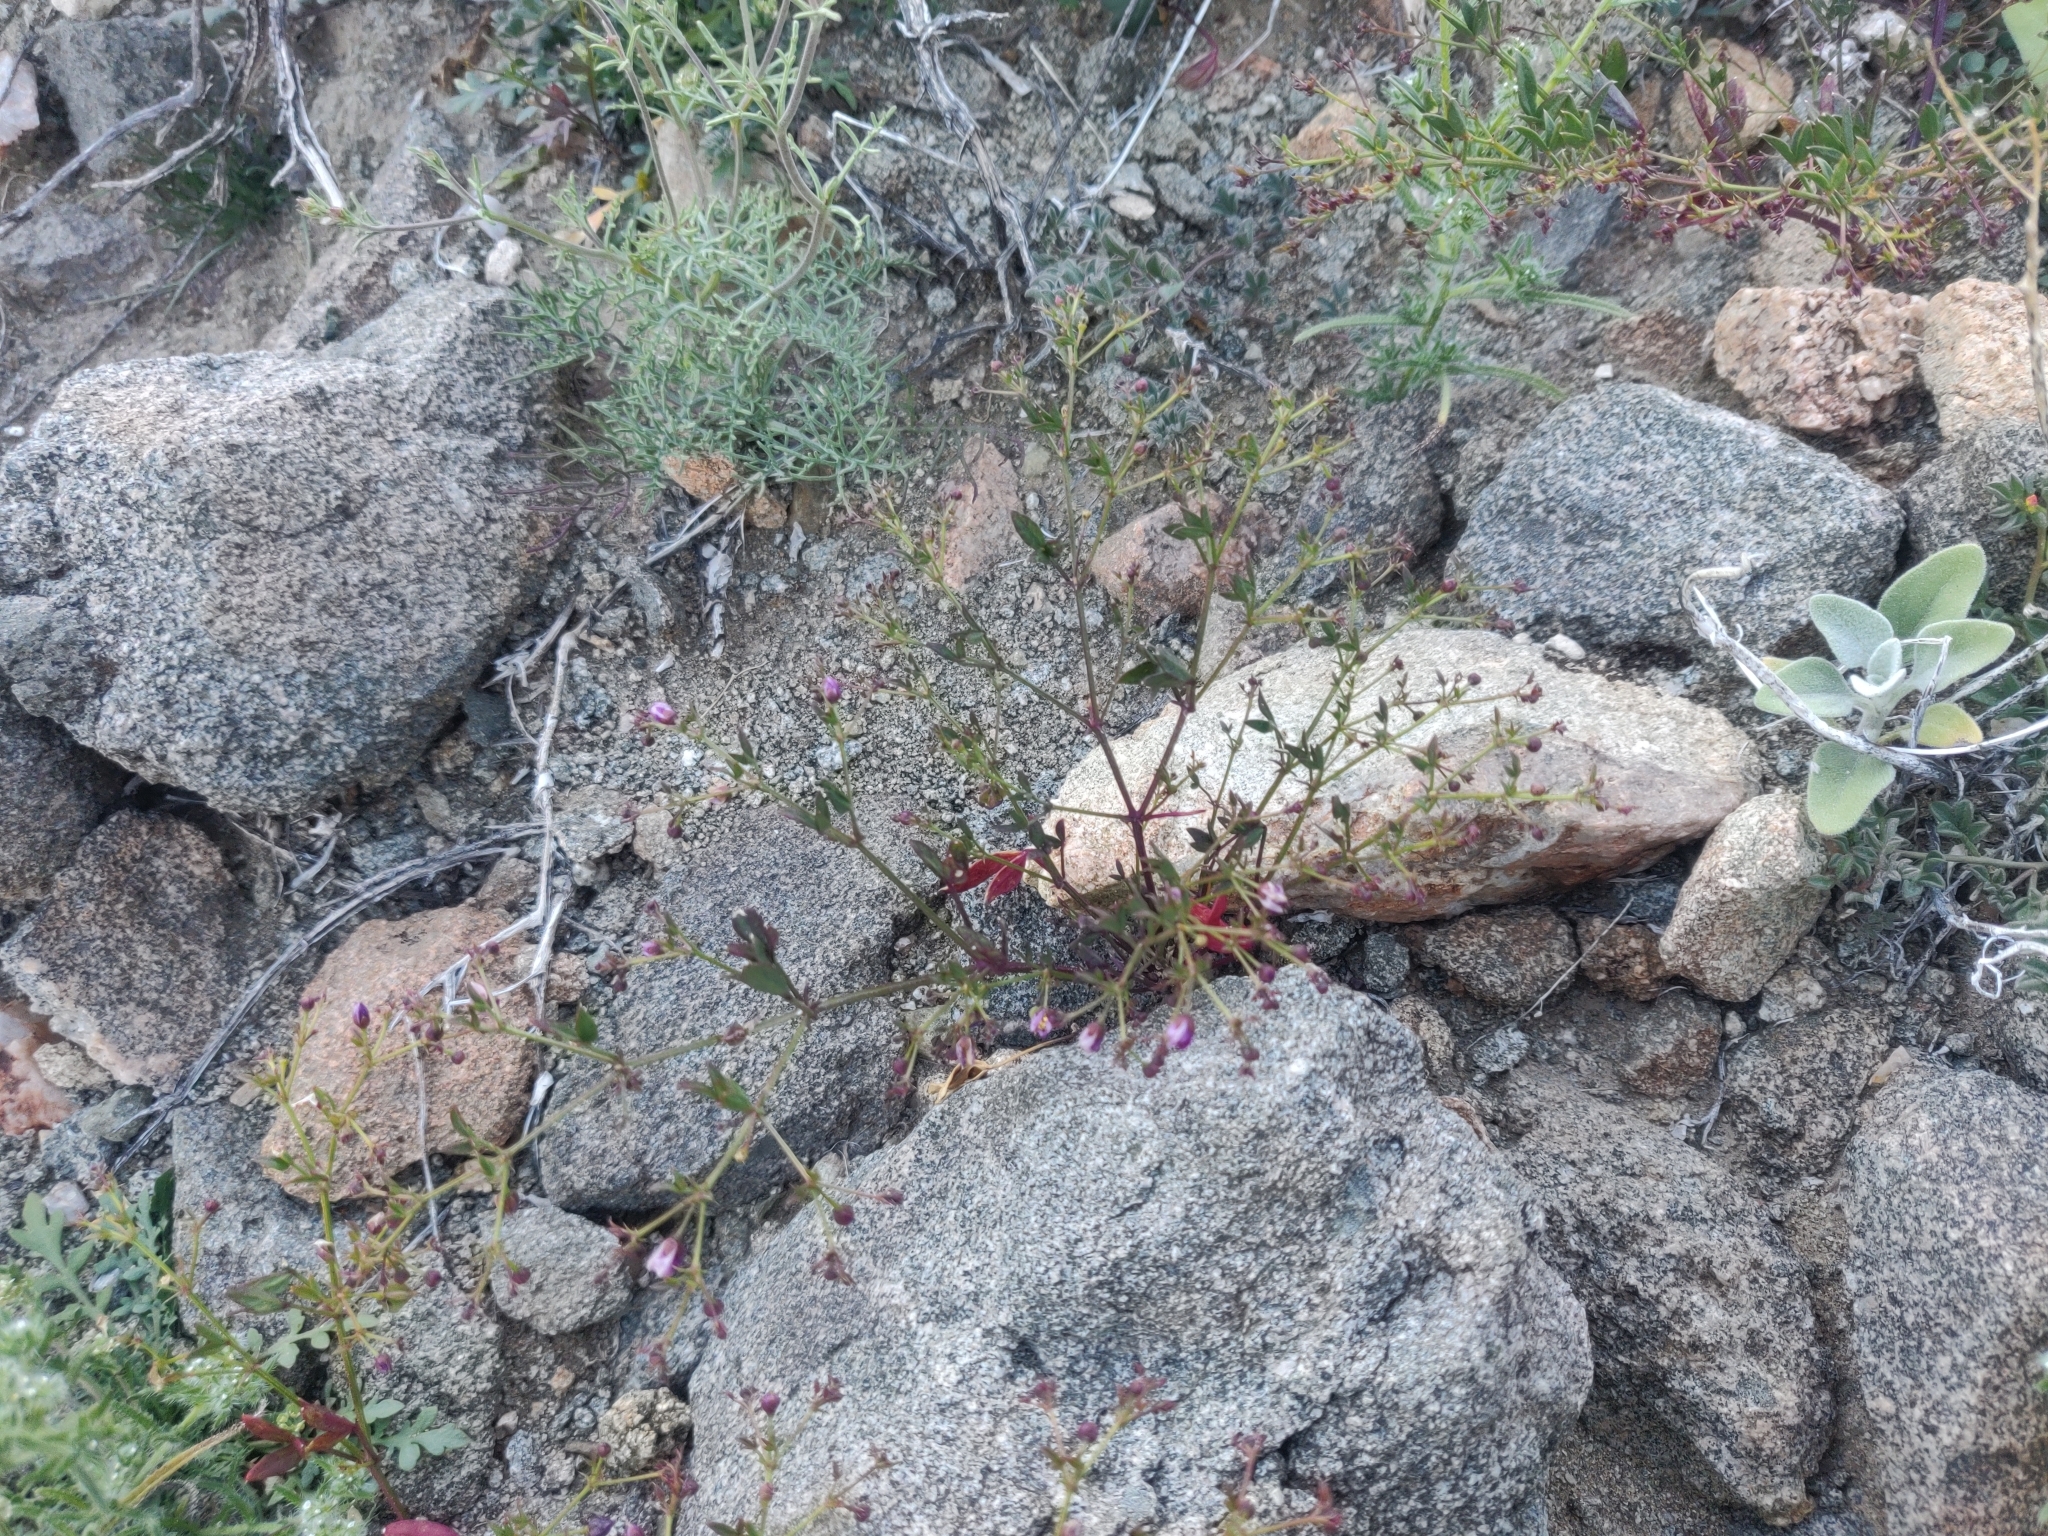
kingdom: Plantae
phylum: Tracheophyta
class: Magnoliopsida
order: Zygophyllales
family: Zygophyllaceae
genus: Fagonia
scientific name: Fagonia laevis
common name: California fagonbush
